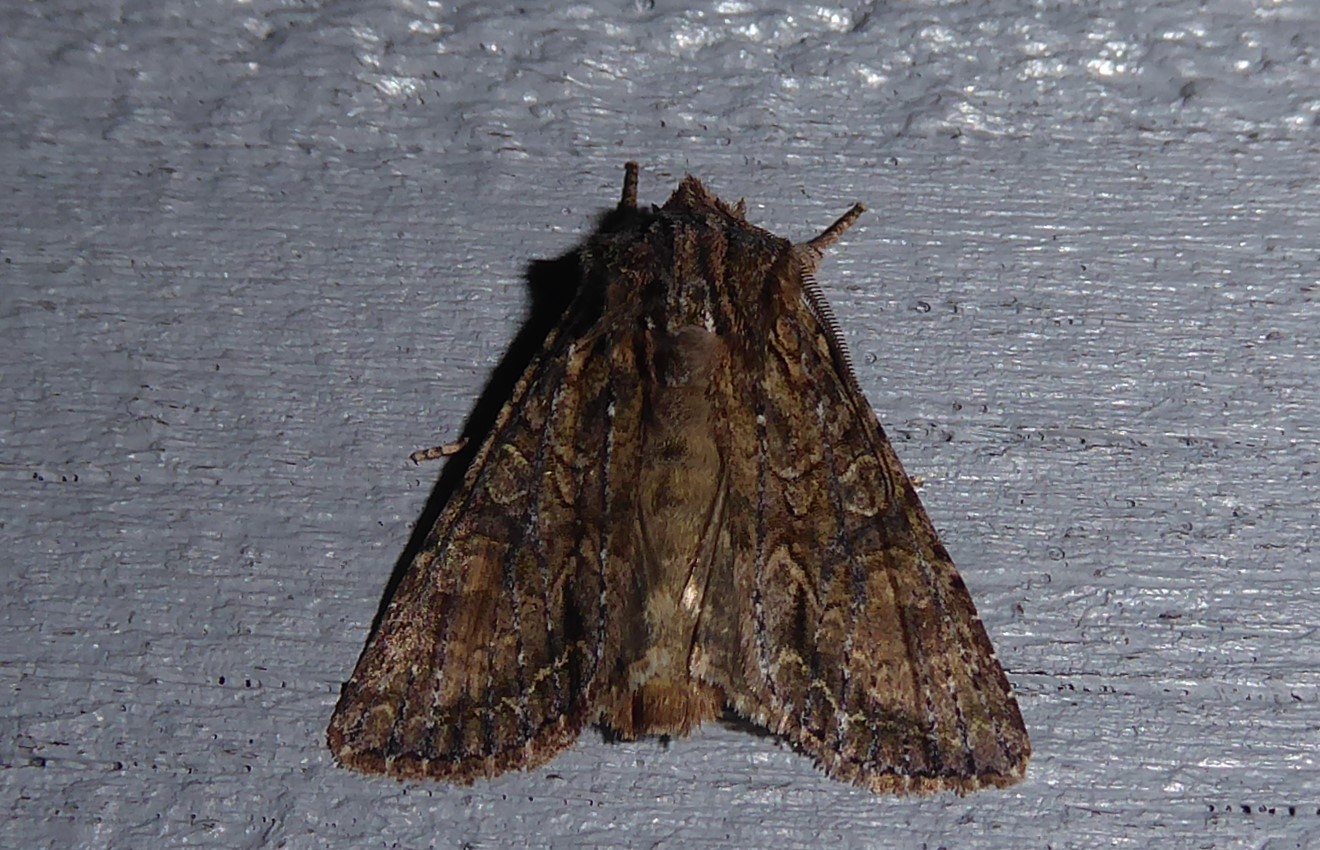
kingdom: Animalia
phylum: Arthropoda
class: Insecta
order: Lepidoptera
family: Noctuidae
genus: Ichneutica
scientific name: Ichneutica mutans
